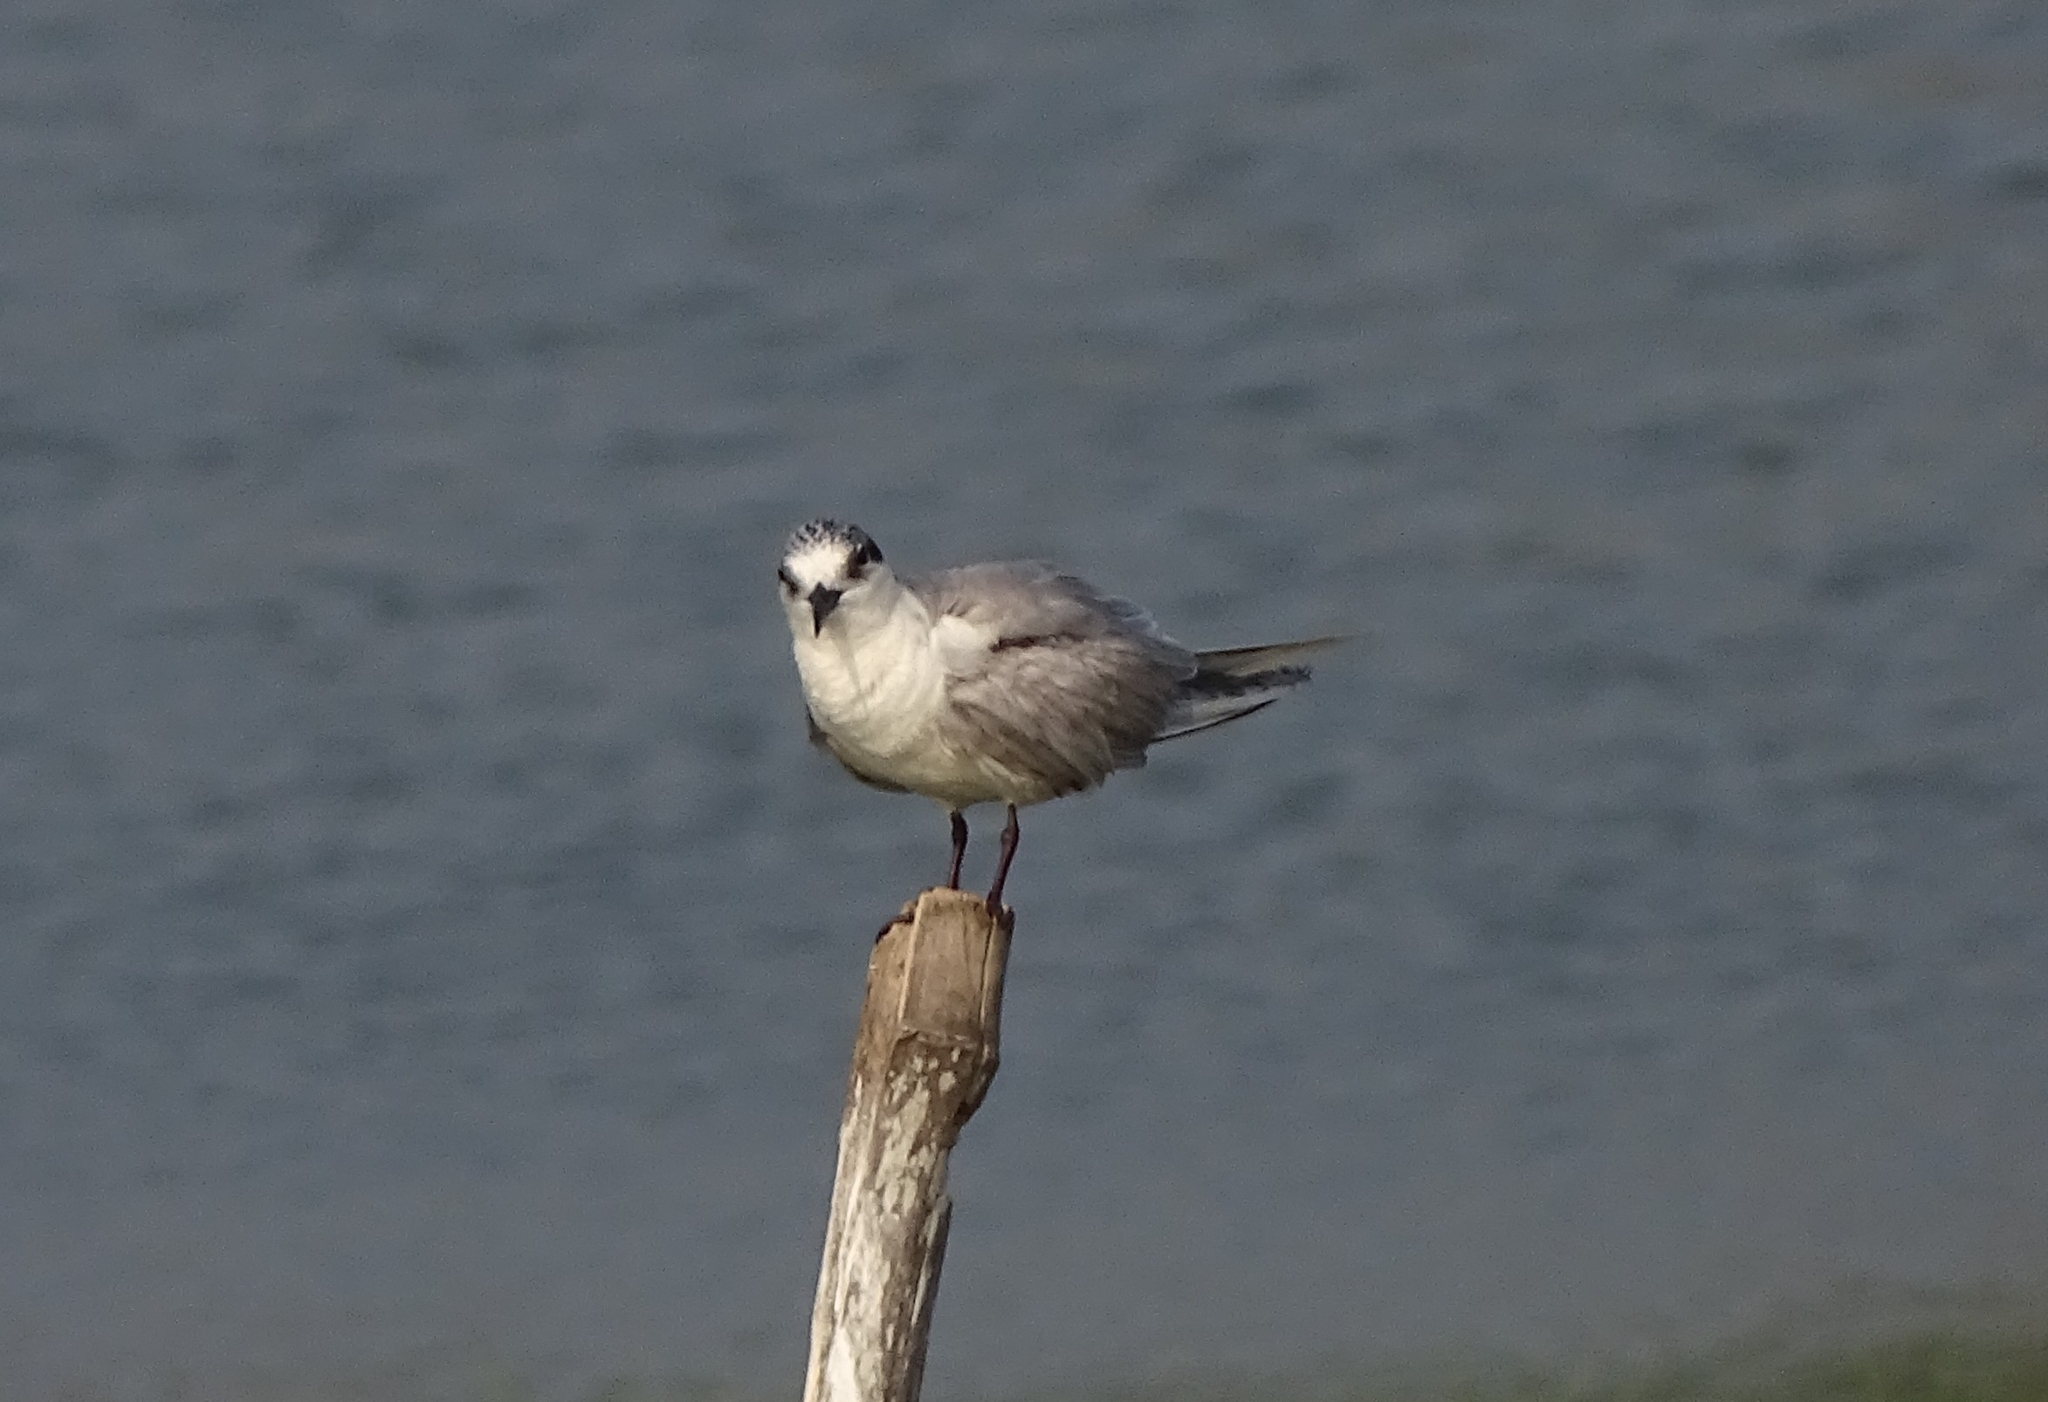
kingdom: Animalia
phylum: Chordata
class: Aves
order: Charadriiformes
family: Laridae
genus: Chlidonias
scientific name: Chlidonias hybrida
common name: Whiskered tern
